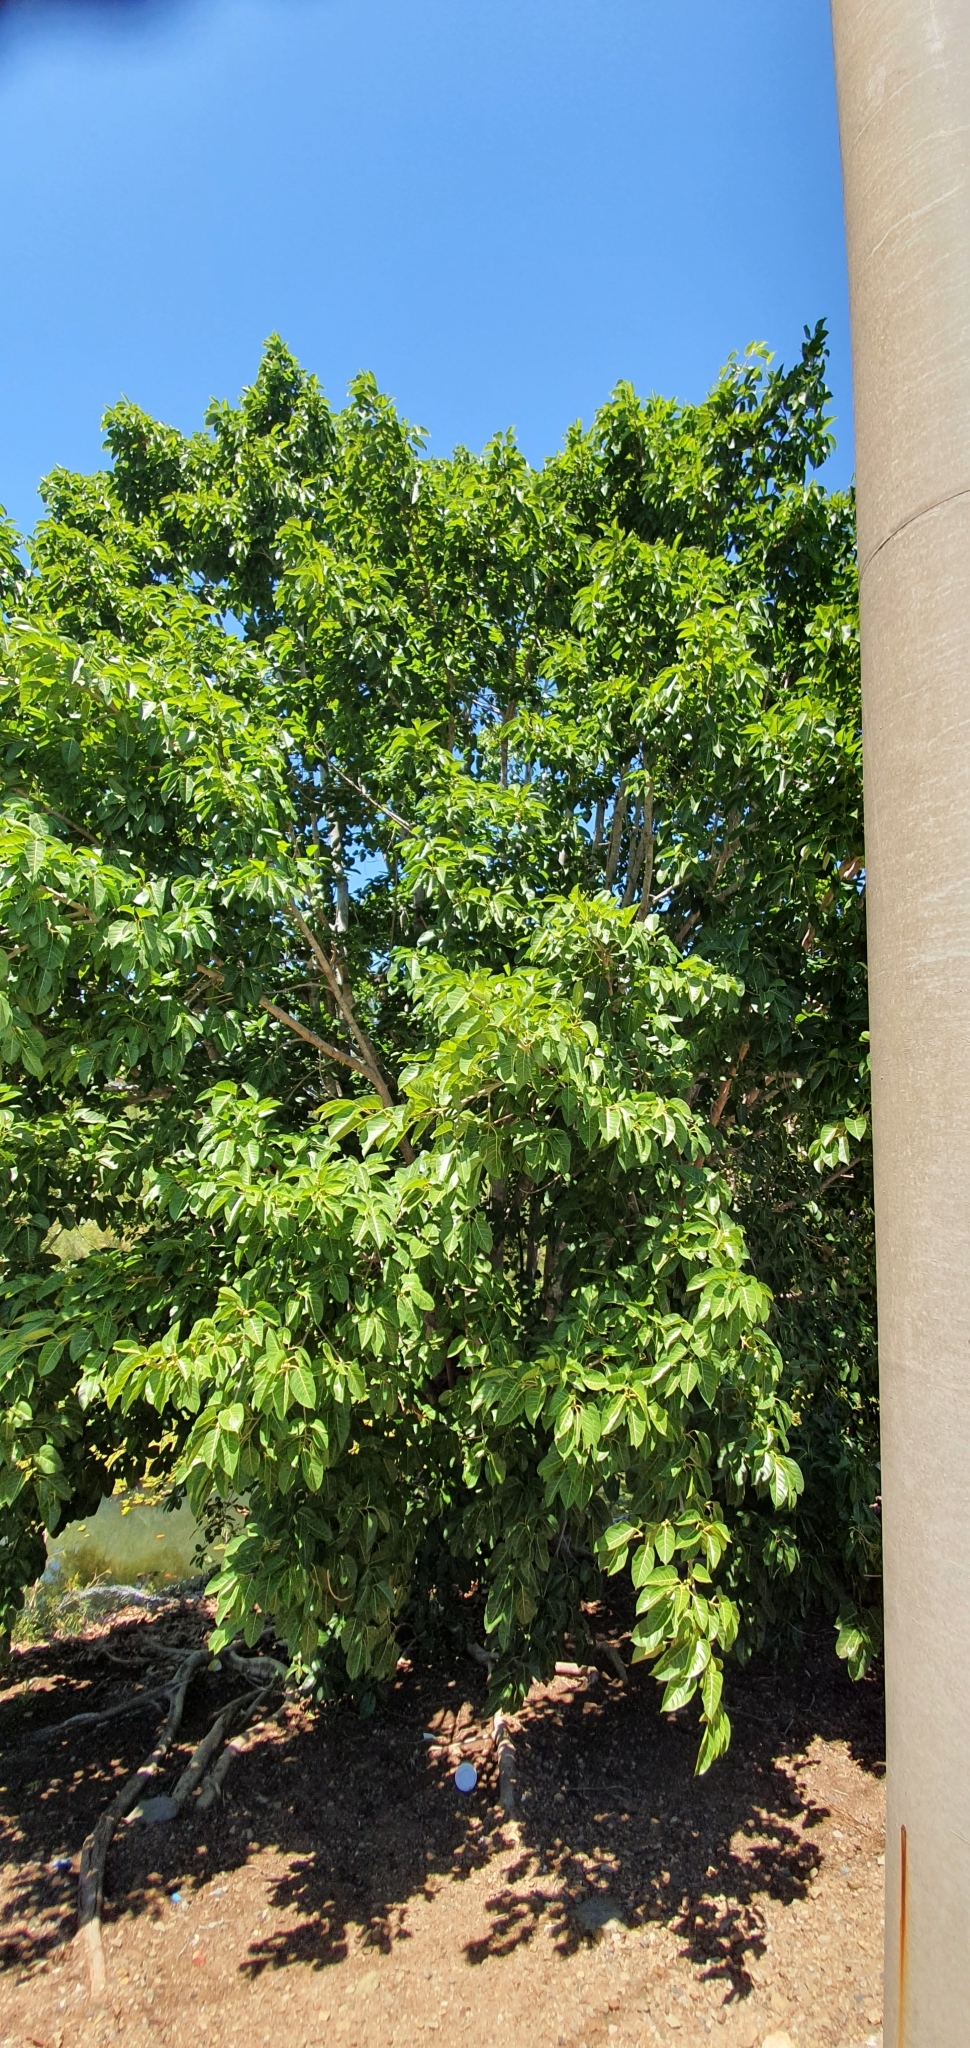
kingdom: Plantae
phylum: Tracheophyta
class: Magnoliopsida
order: Rosales
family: Moraceae
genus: Ficus
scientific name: Ficus virens
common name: Spotted fig
